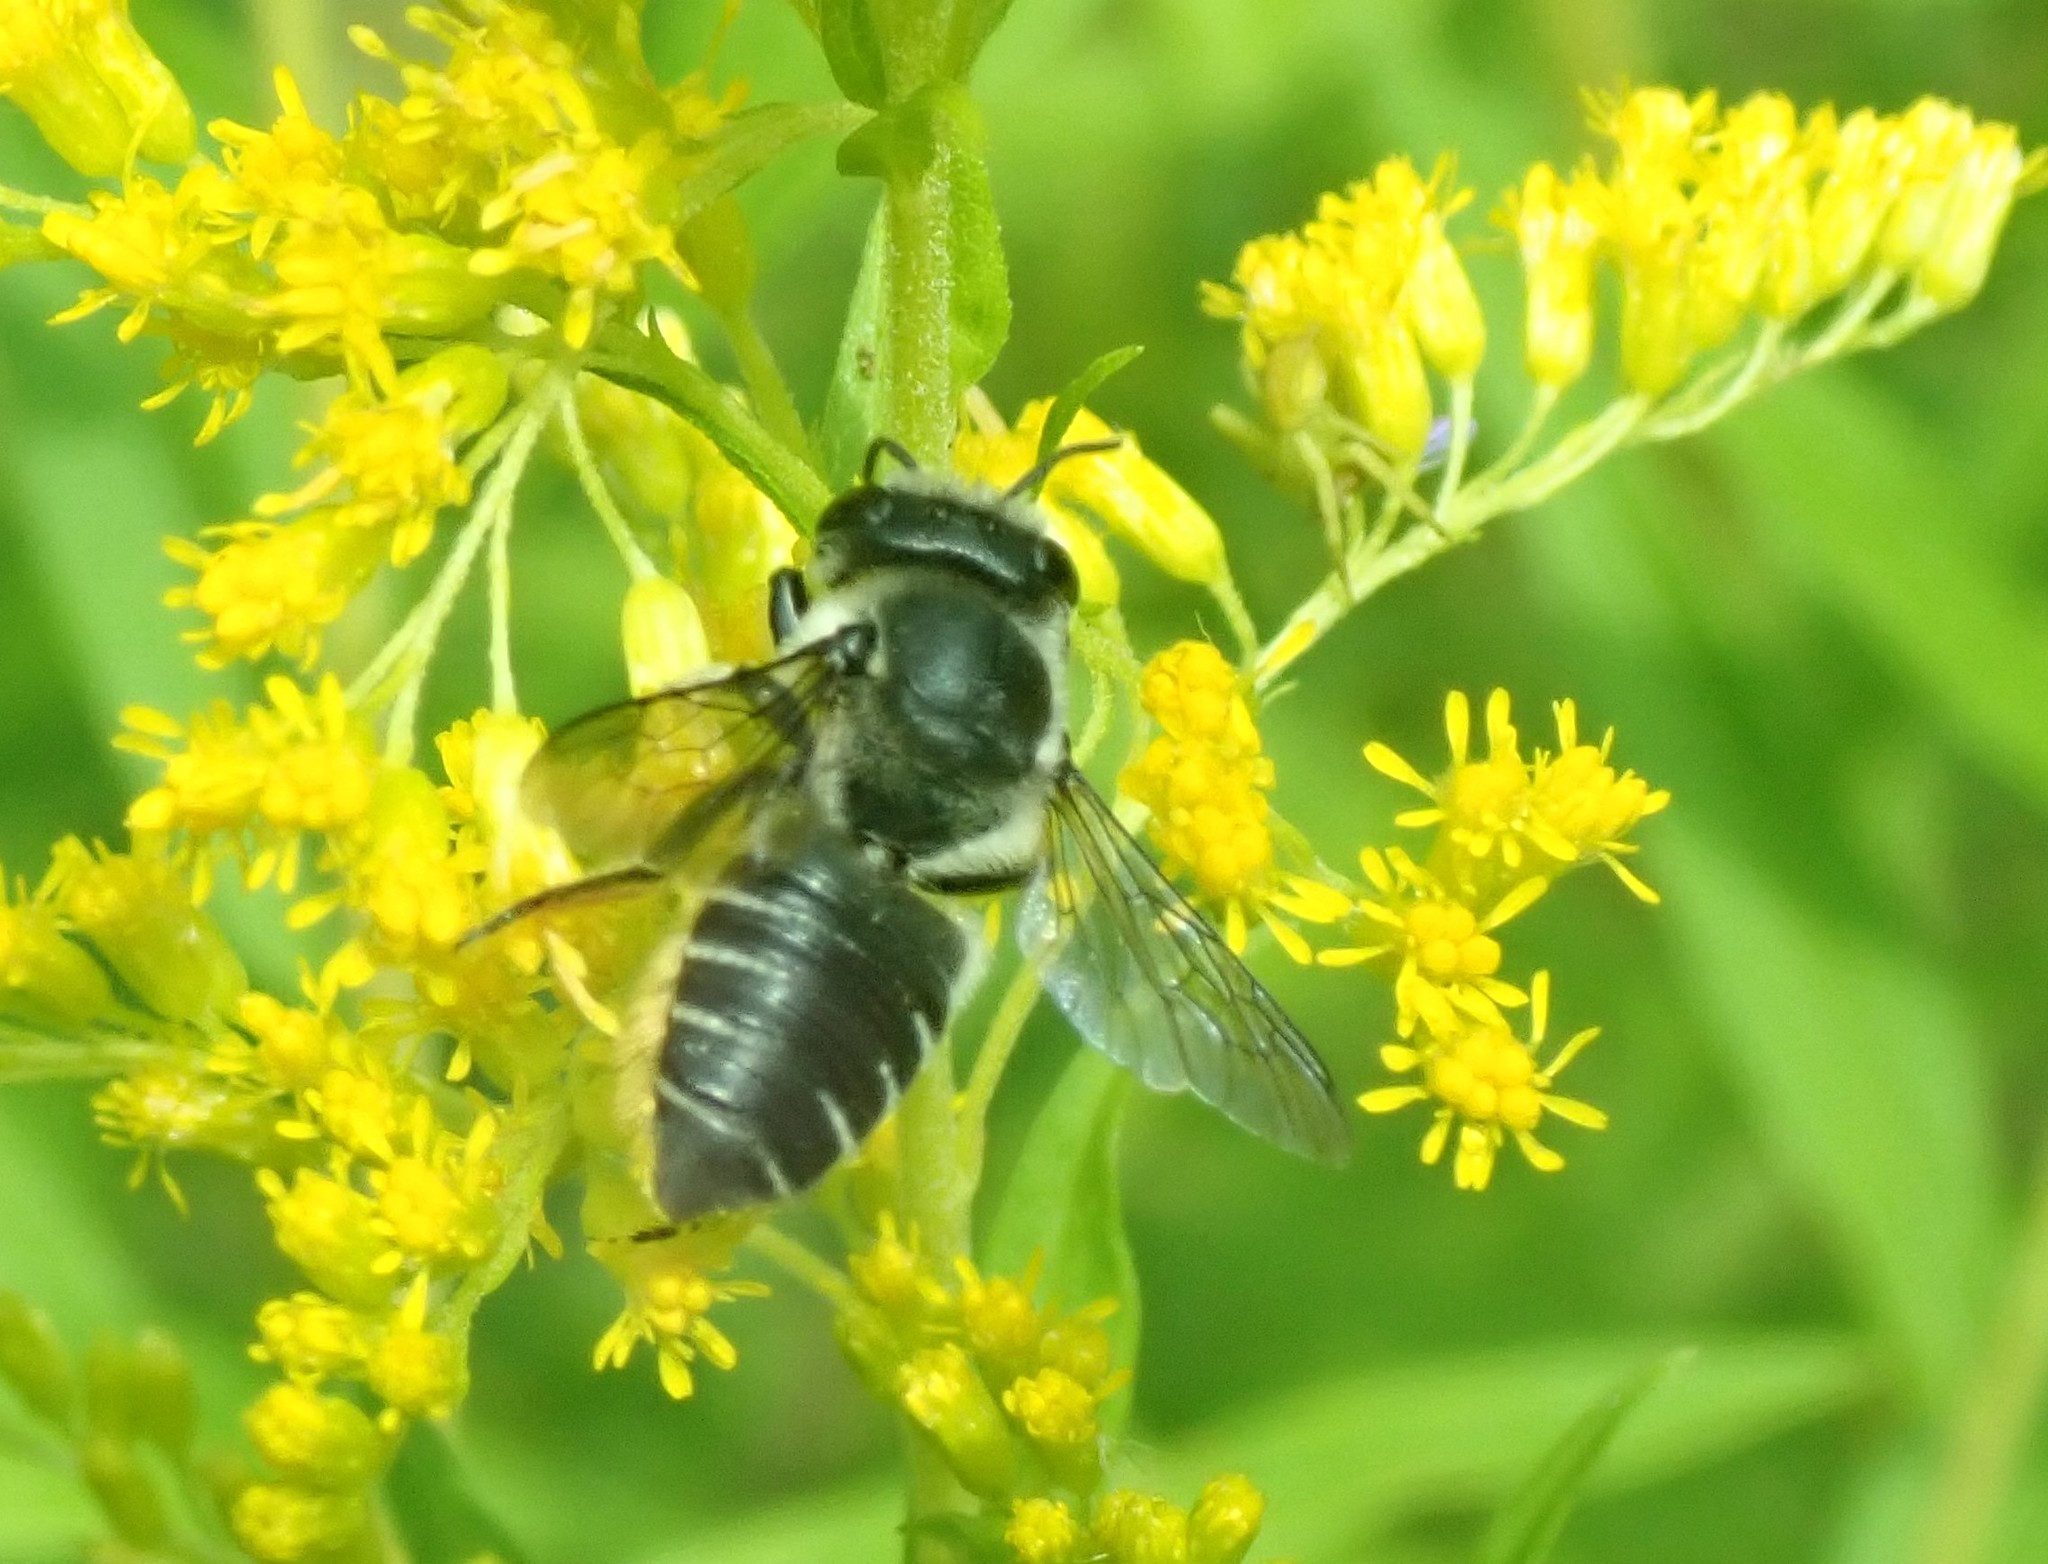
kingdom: Animalia
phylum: Arthropoda
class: Insecta
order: Hymenoptera
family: Megachilidae
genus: Megachile
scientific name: Megachile mendica
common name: Flat-tailed leafcutter
